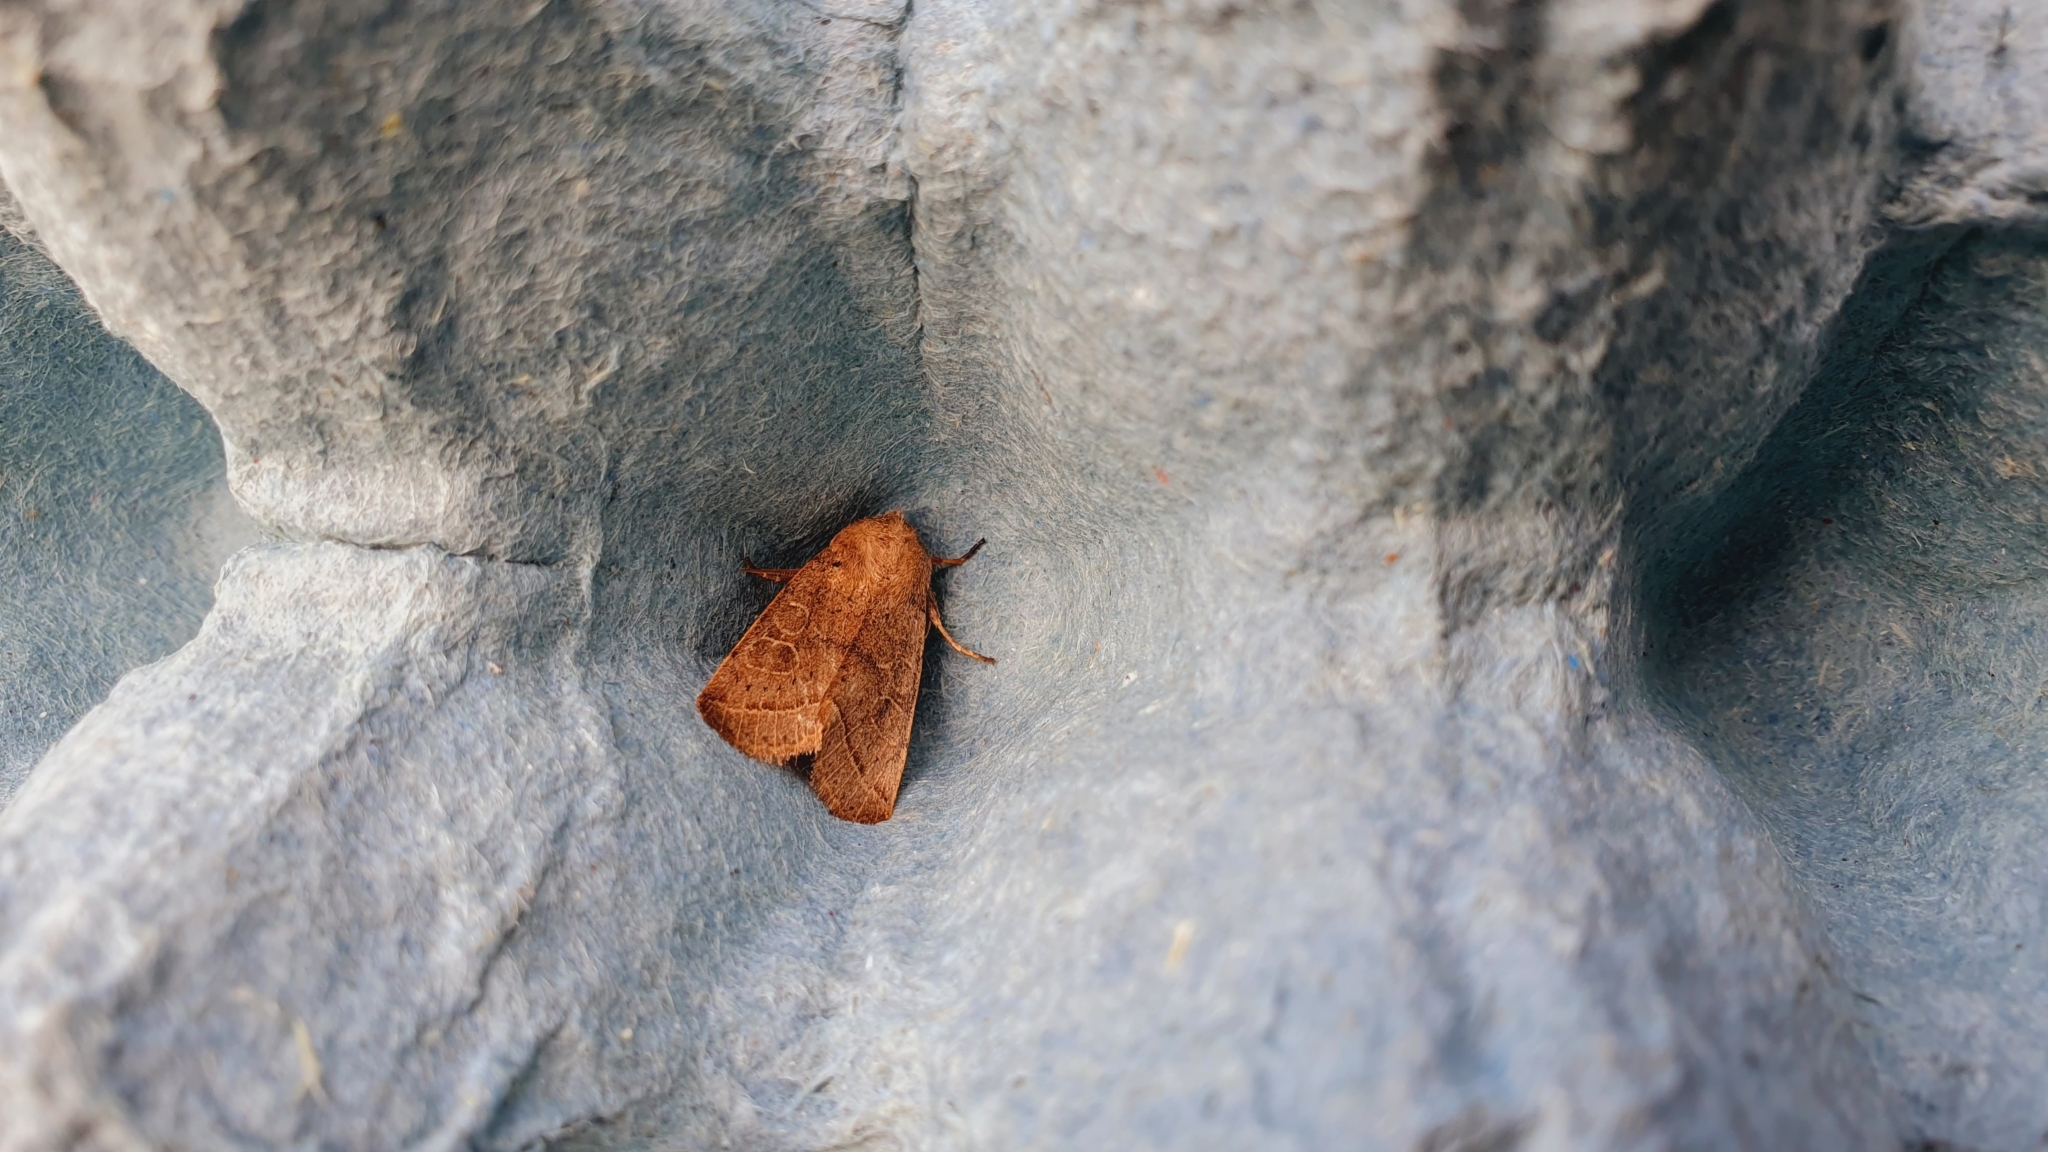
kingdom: Animalia
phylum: Arthropoda
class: Insecta
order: Lepidoptera
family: Noctuidae
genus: Orthosia
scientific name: Orthosia cerasi
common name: Common quaker
